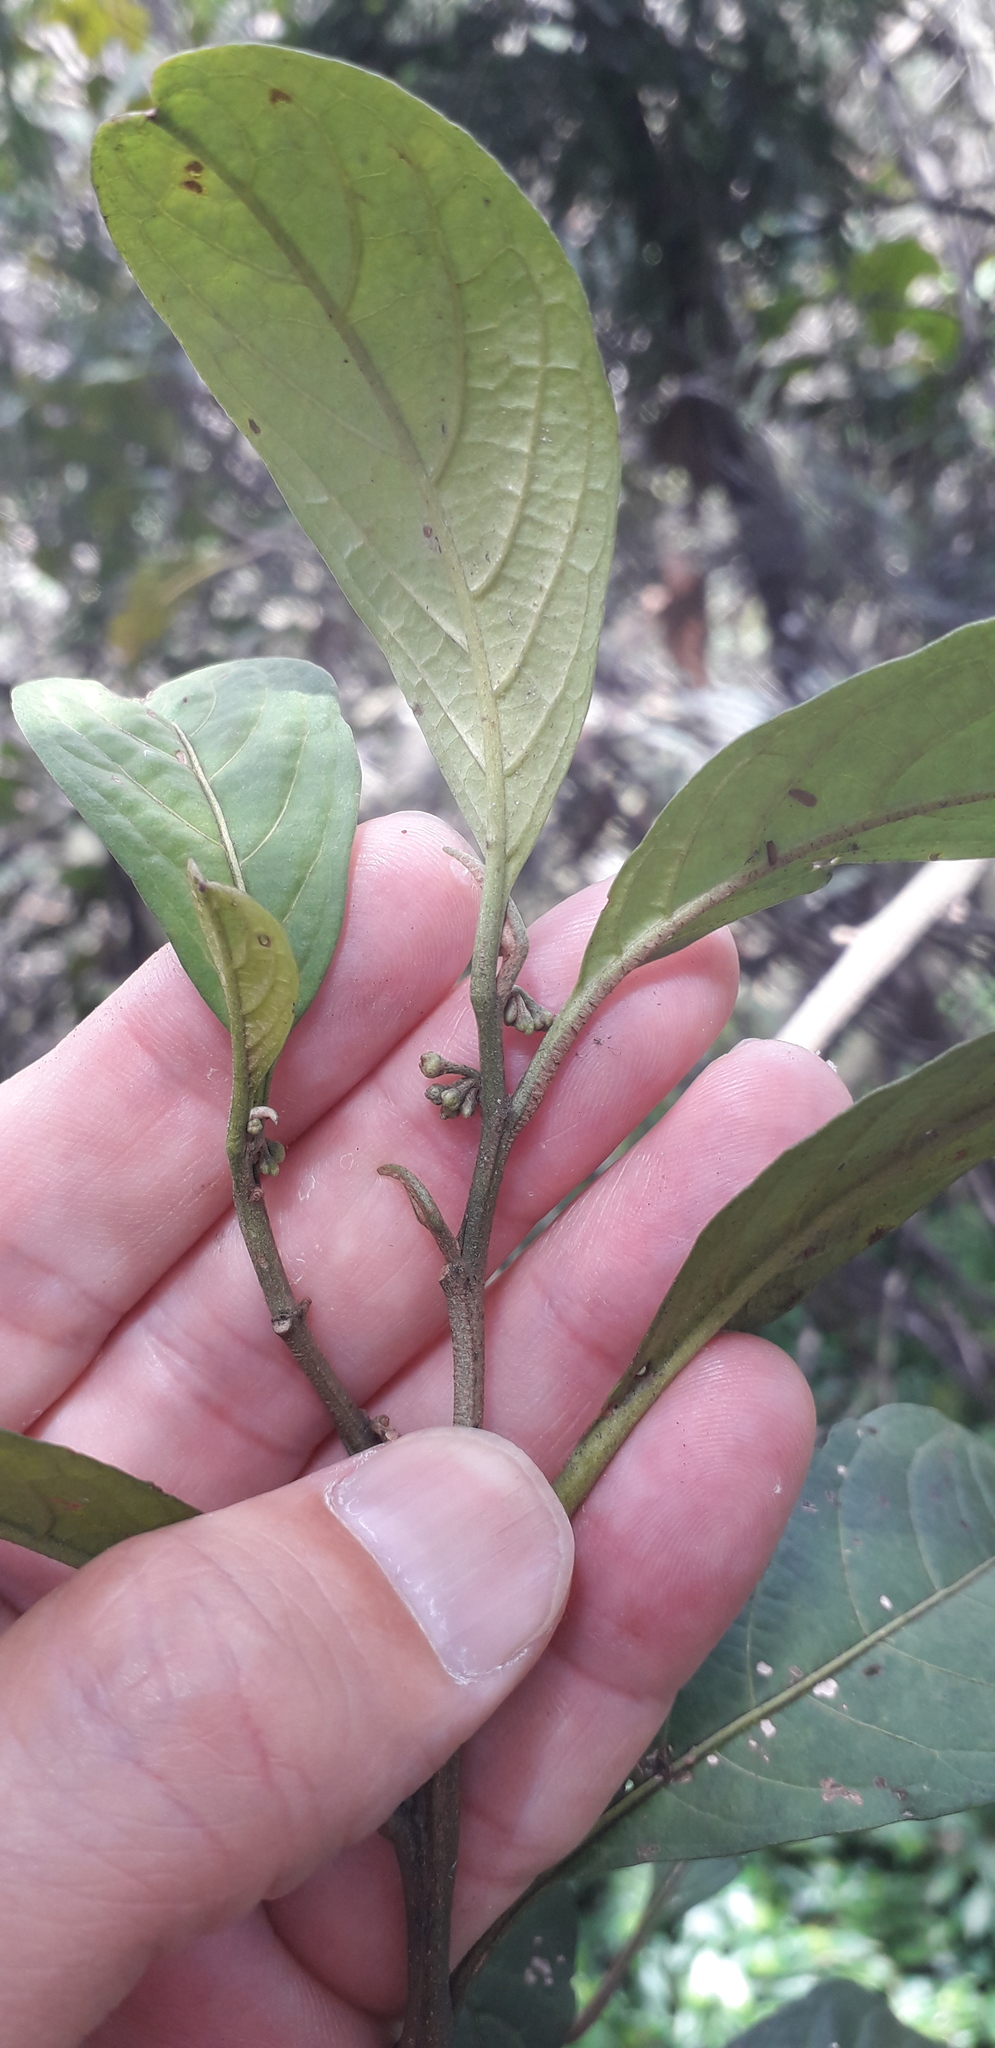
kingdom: Plantae
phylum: Tracheophyta
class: Magnoliopsida
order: Solanales
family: Solanaceae
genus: Solanum
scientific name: Solanum cornifolium
